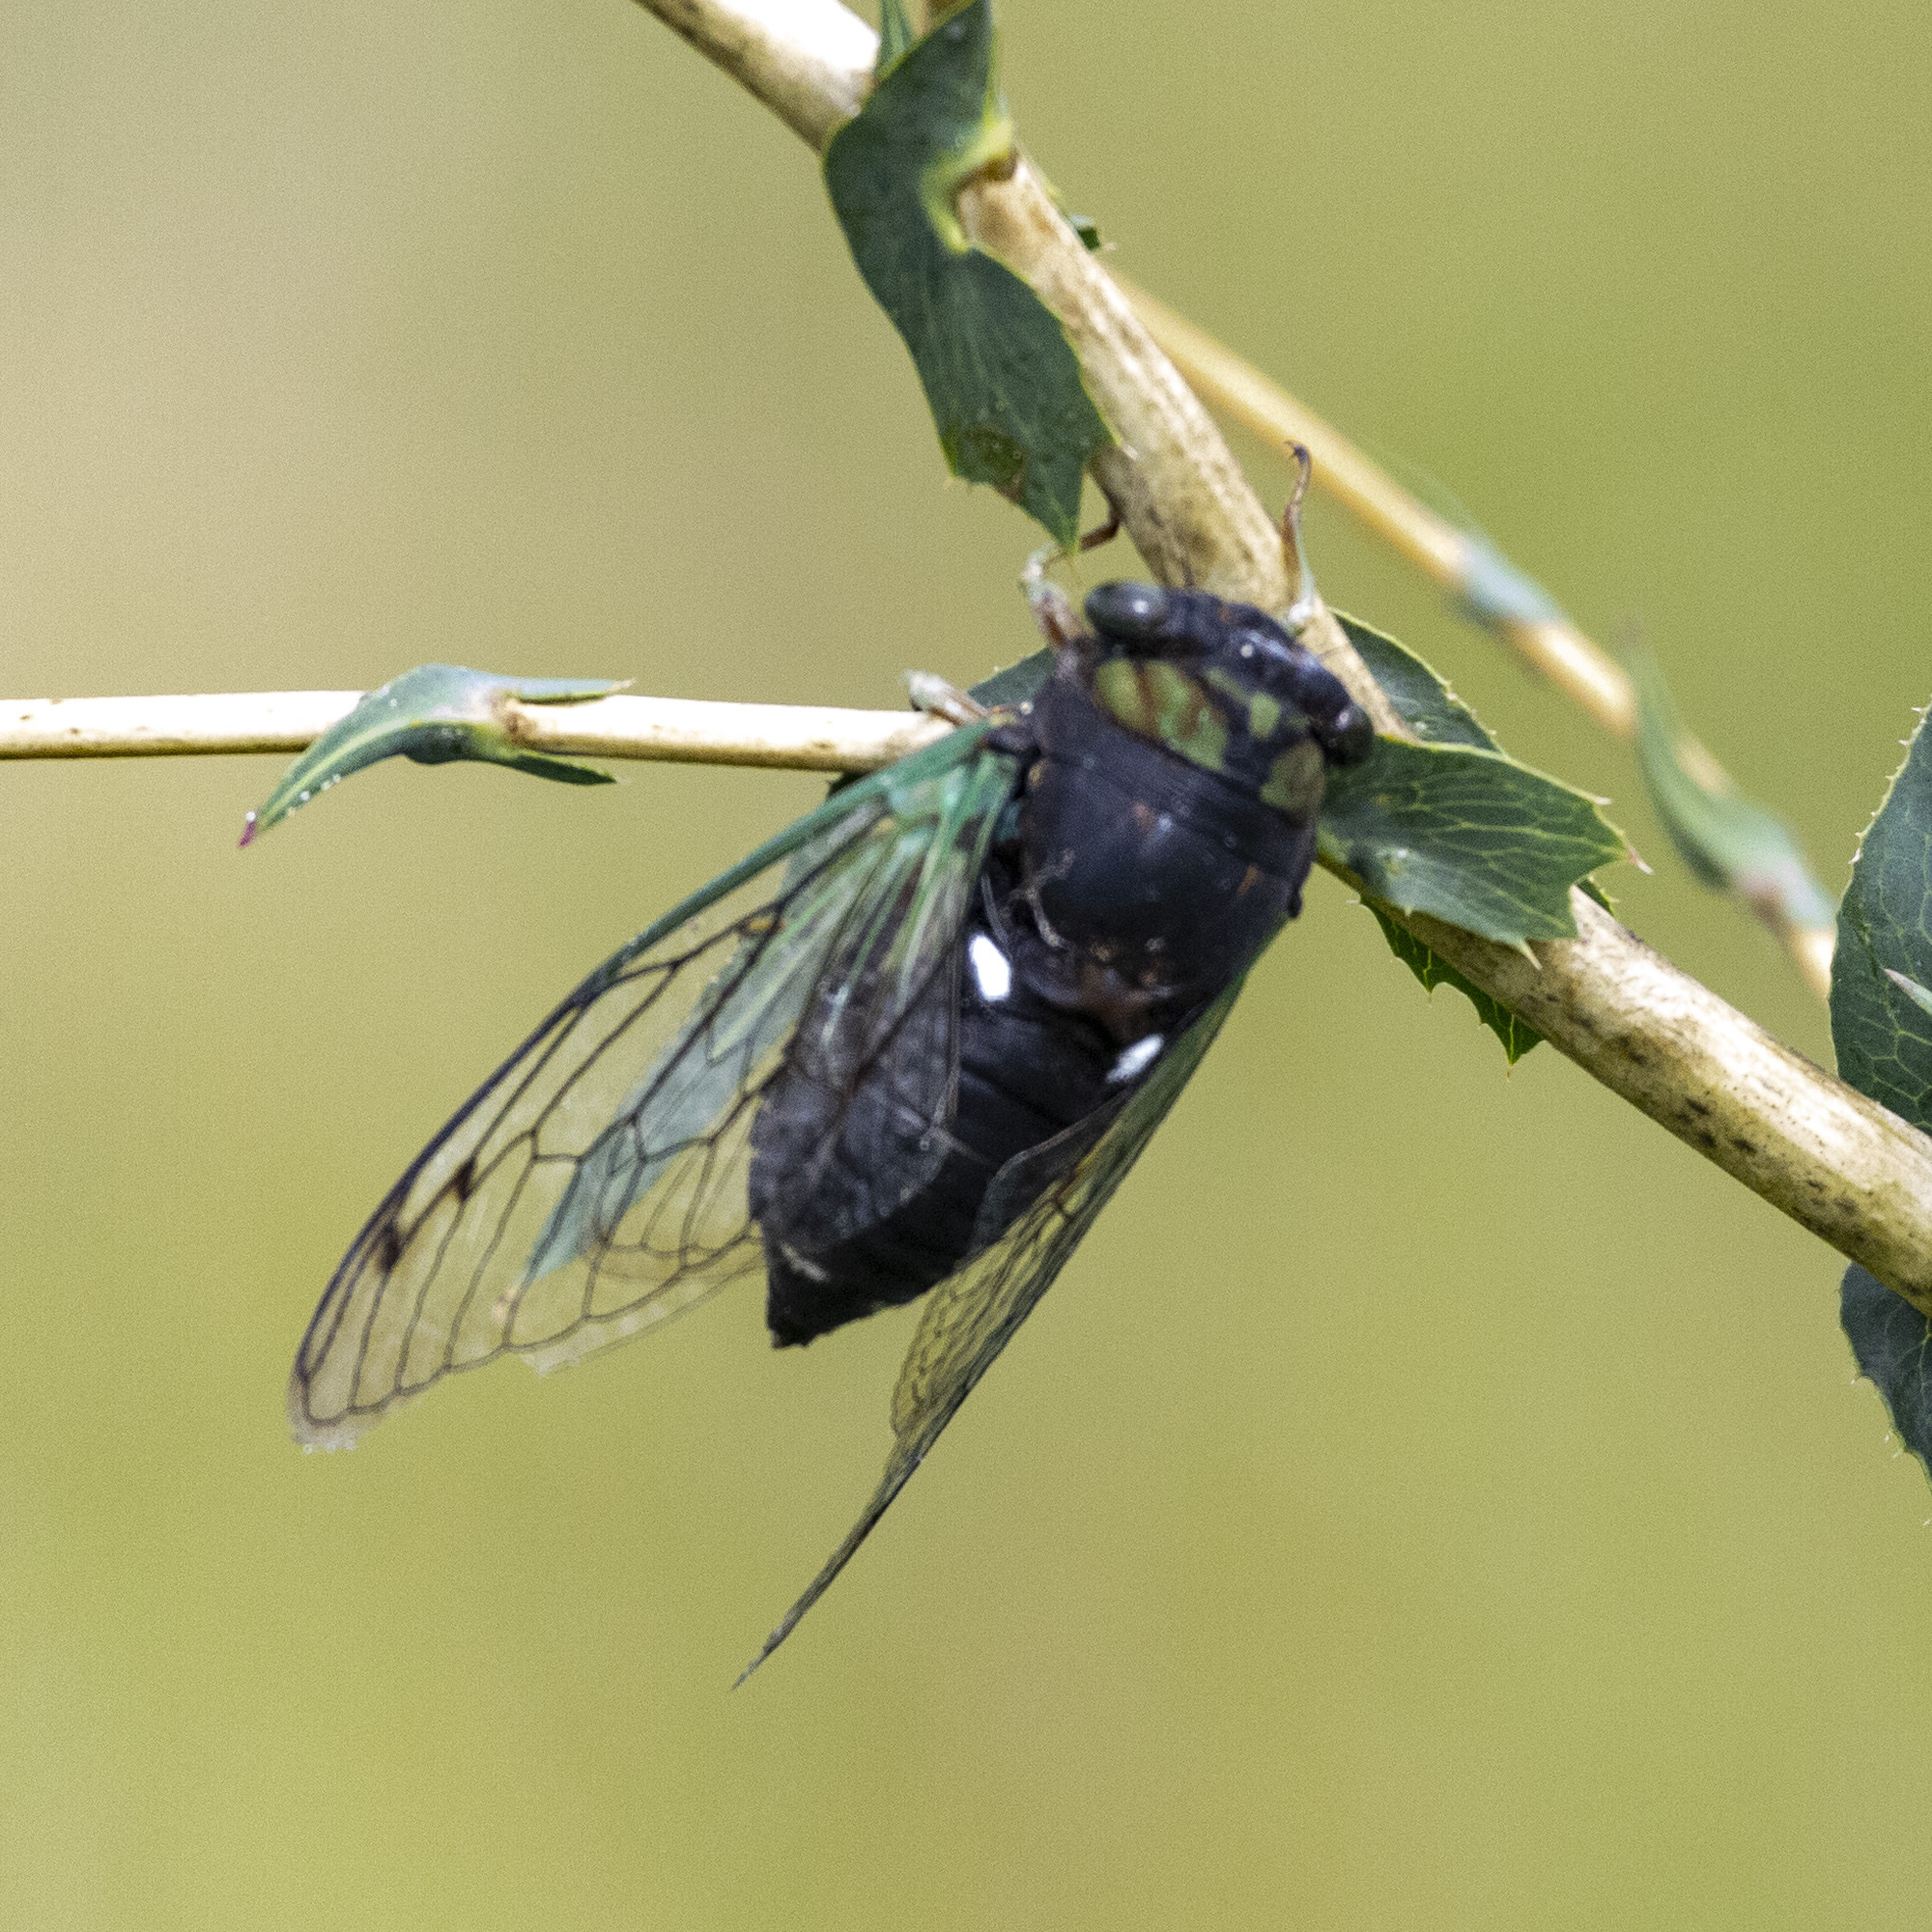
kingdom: Animalia
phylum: Arthropoda
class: Insecta
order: Hemiptera
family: Cicadidae
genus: Neotibicen
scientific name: Neotibicen tibicen
